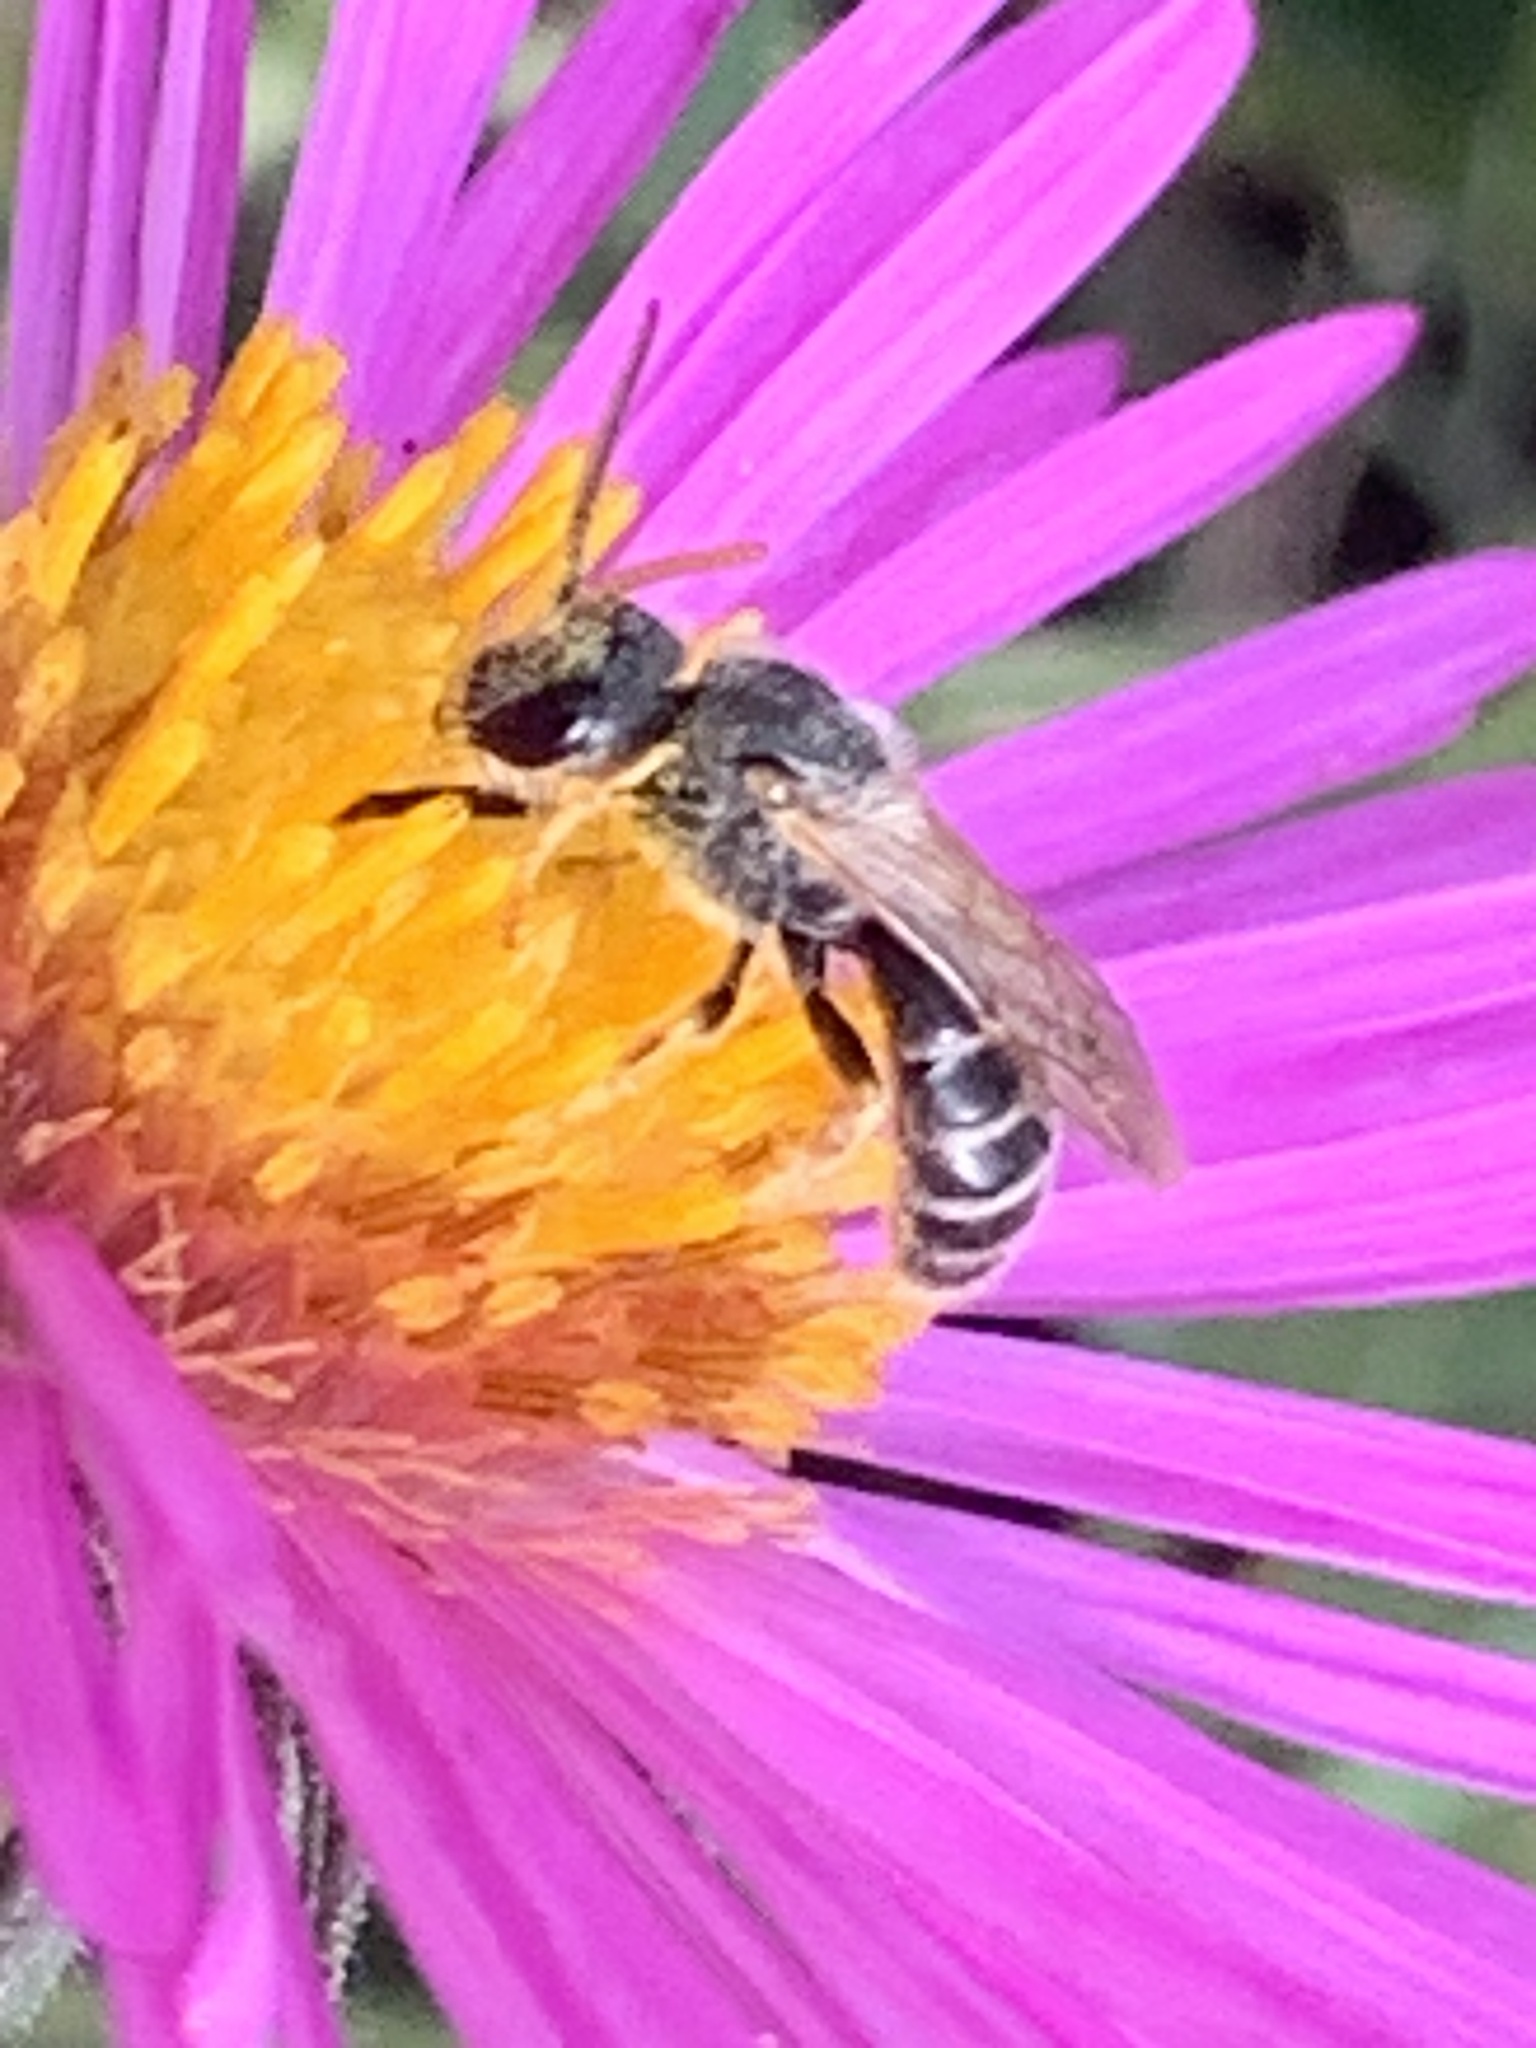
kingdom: Animalia
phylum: Arthropoda
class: Insecta
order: Hymenoptera
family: Halictidae
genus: Halictus
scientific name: Halictus ligatus
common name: Ligated furrow bee
